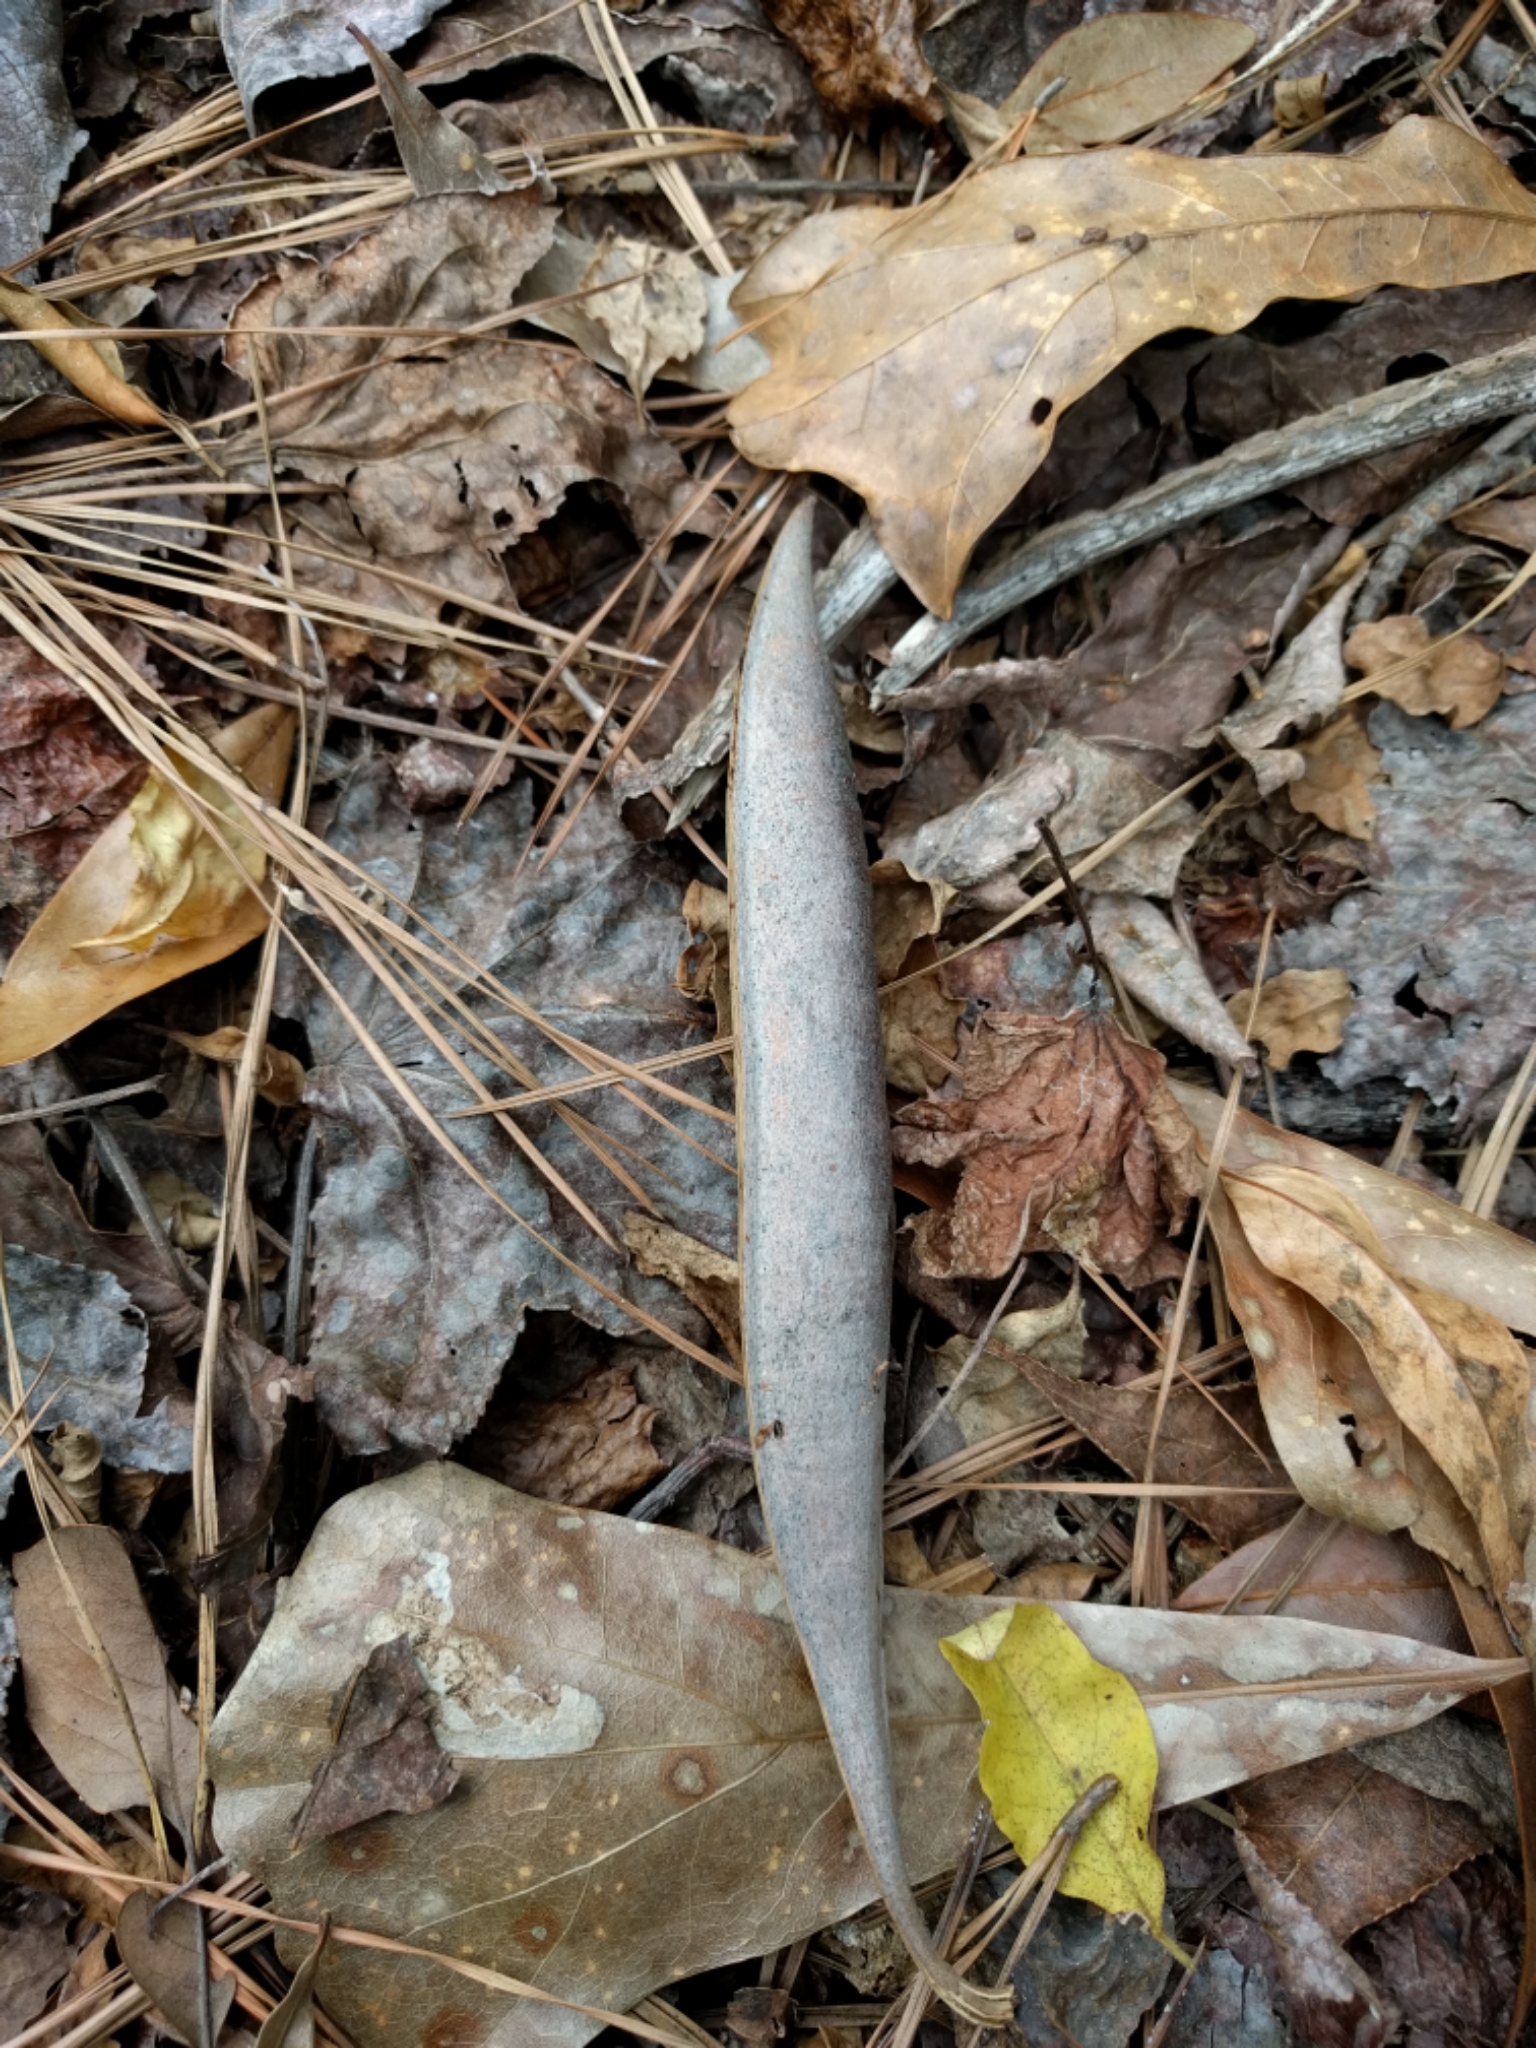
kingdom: Plantae
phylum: Tracheophyta
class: Magnoliopsida
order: Lamiales
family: Bignoniaceae
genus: Campsis
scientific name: Campsis radicans
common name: Trumpet-creeper
